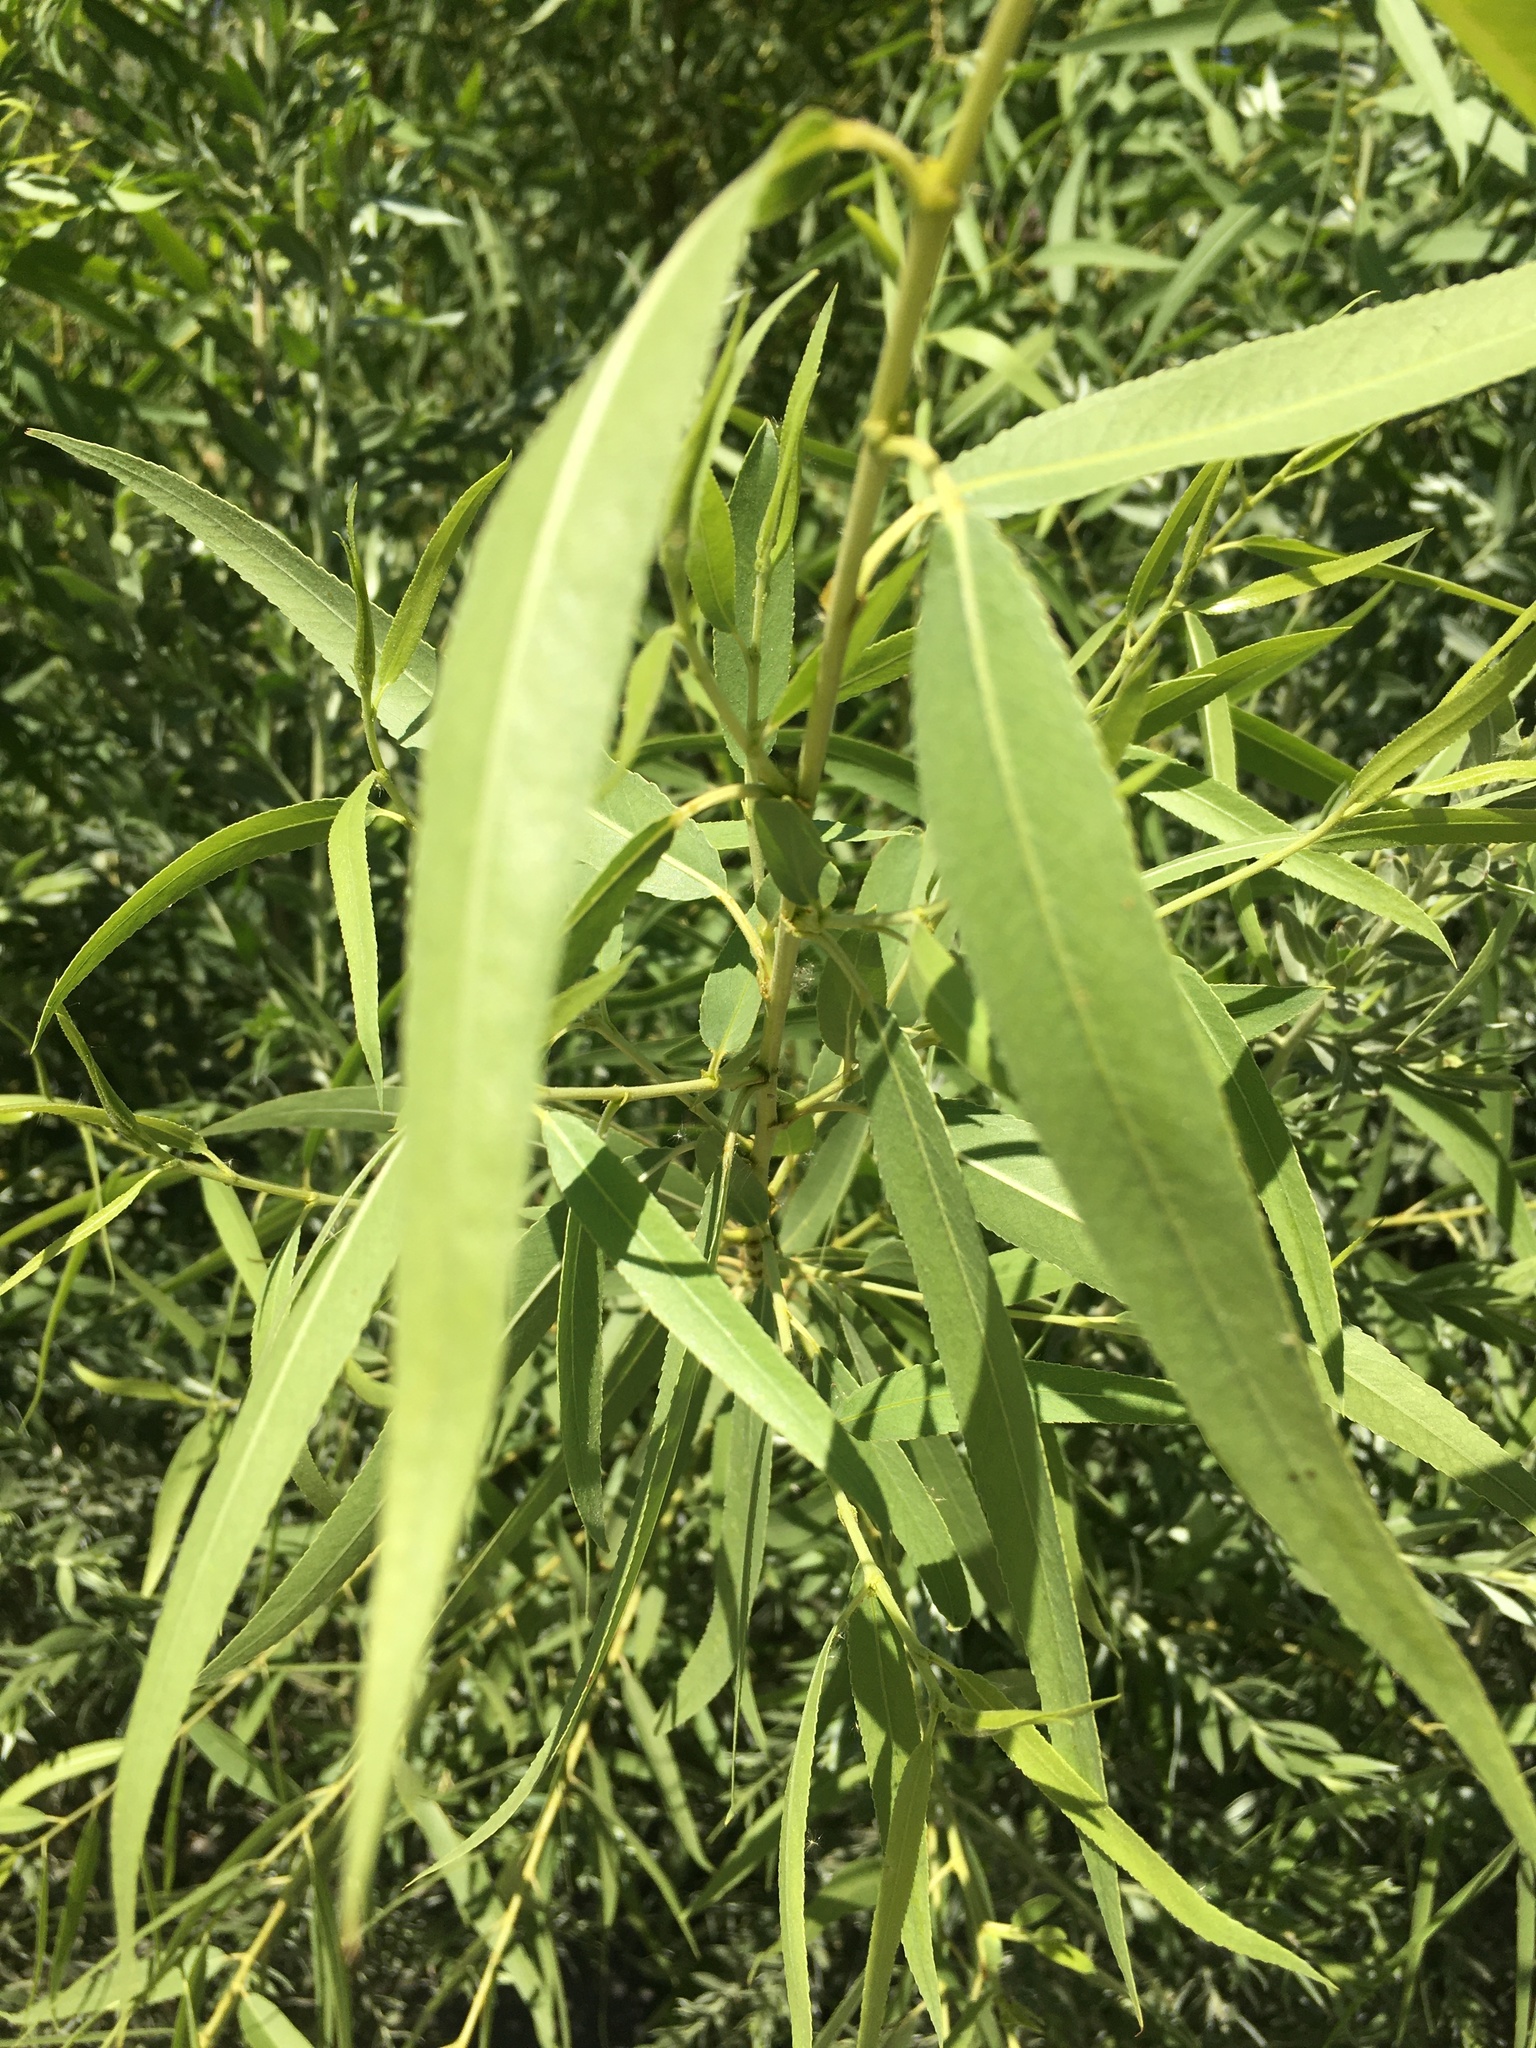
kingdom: Plantae
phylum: Tracheophyta
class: Magnoliopsida
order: Malpighiales
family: Salicaceae
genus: Salix
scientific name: Salix gooddingii
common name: Goodding's willow
